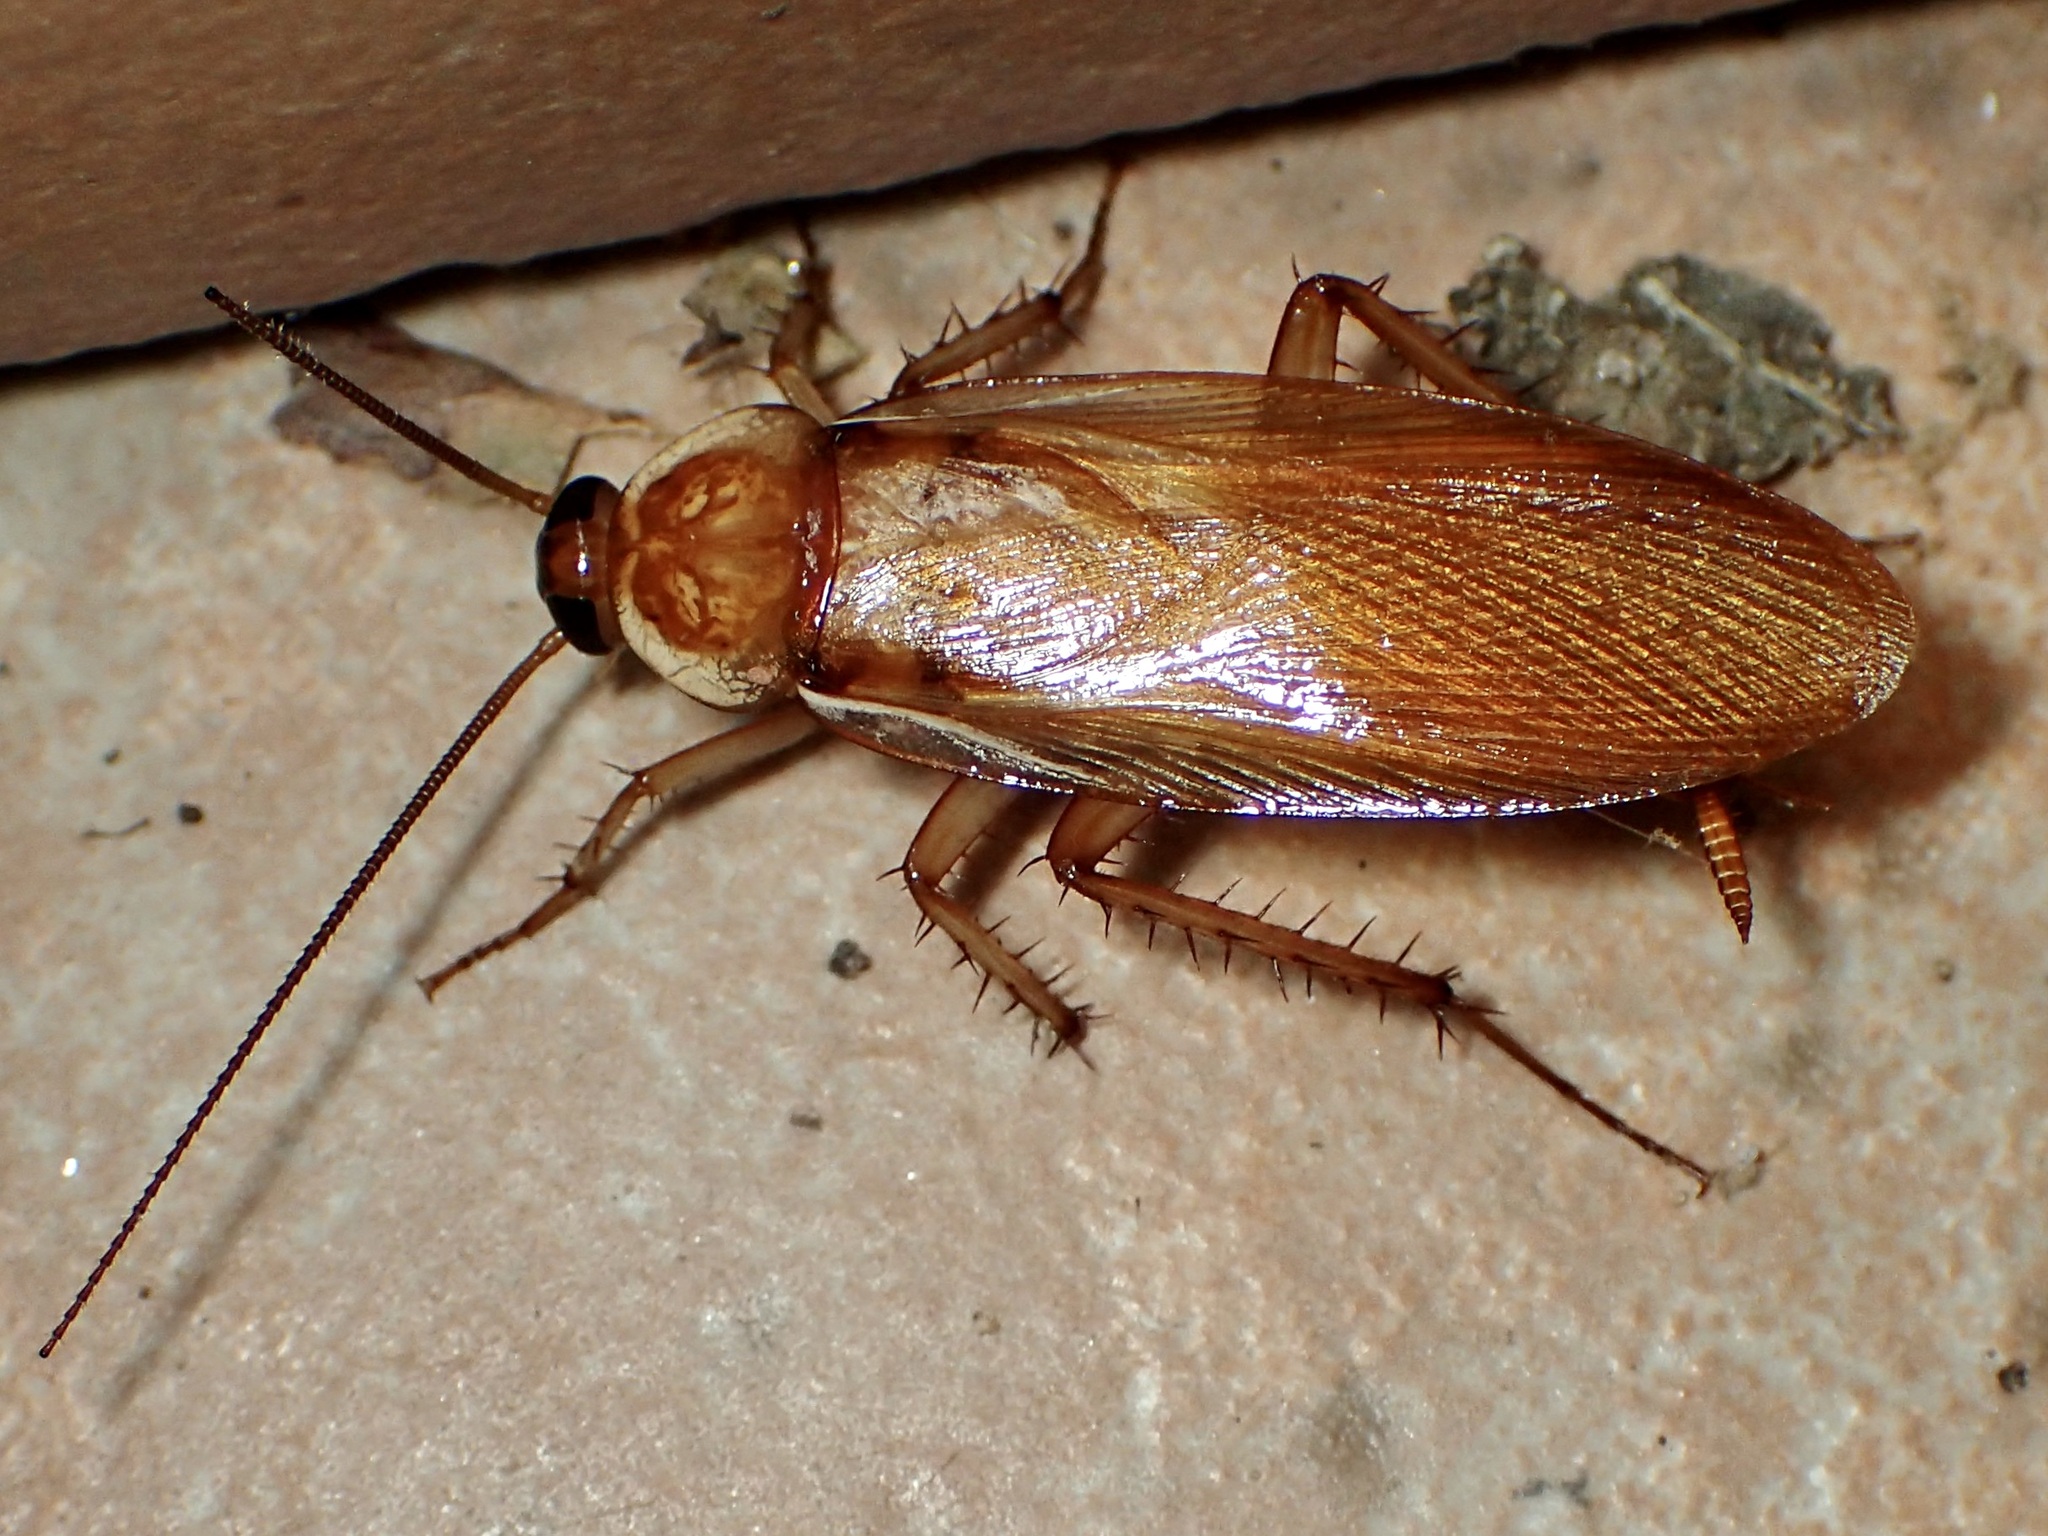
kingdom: Animalia
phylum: Arthropoda
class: Insecta
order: Blattodea
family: Blattidae
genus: Periplaneta
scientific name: Periplaneta lateralis
